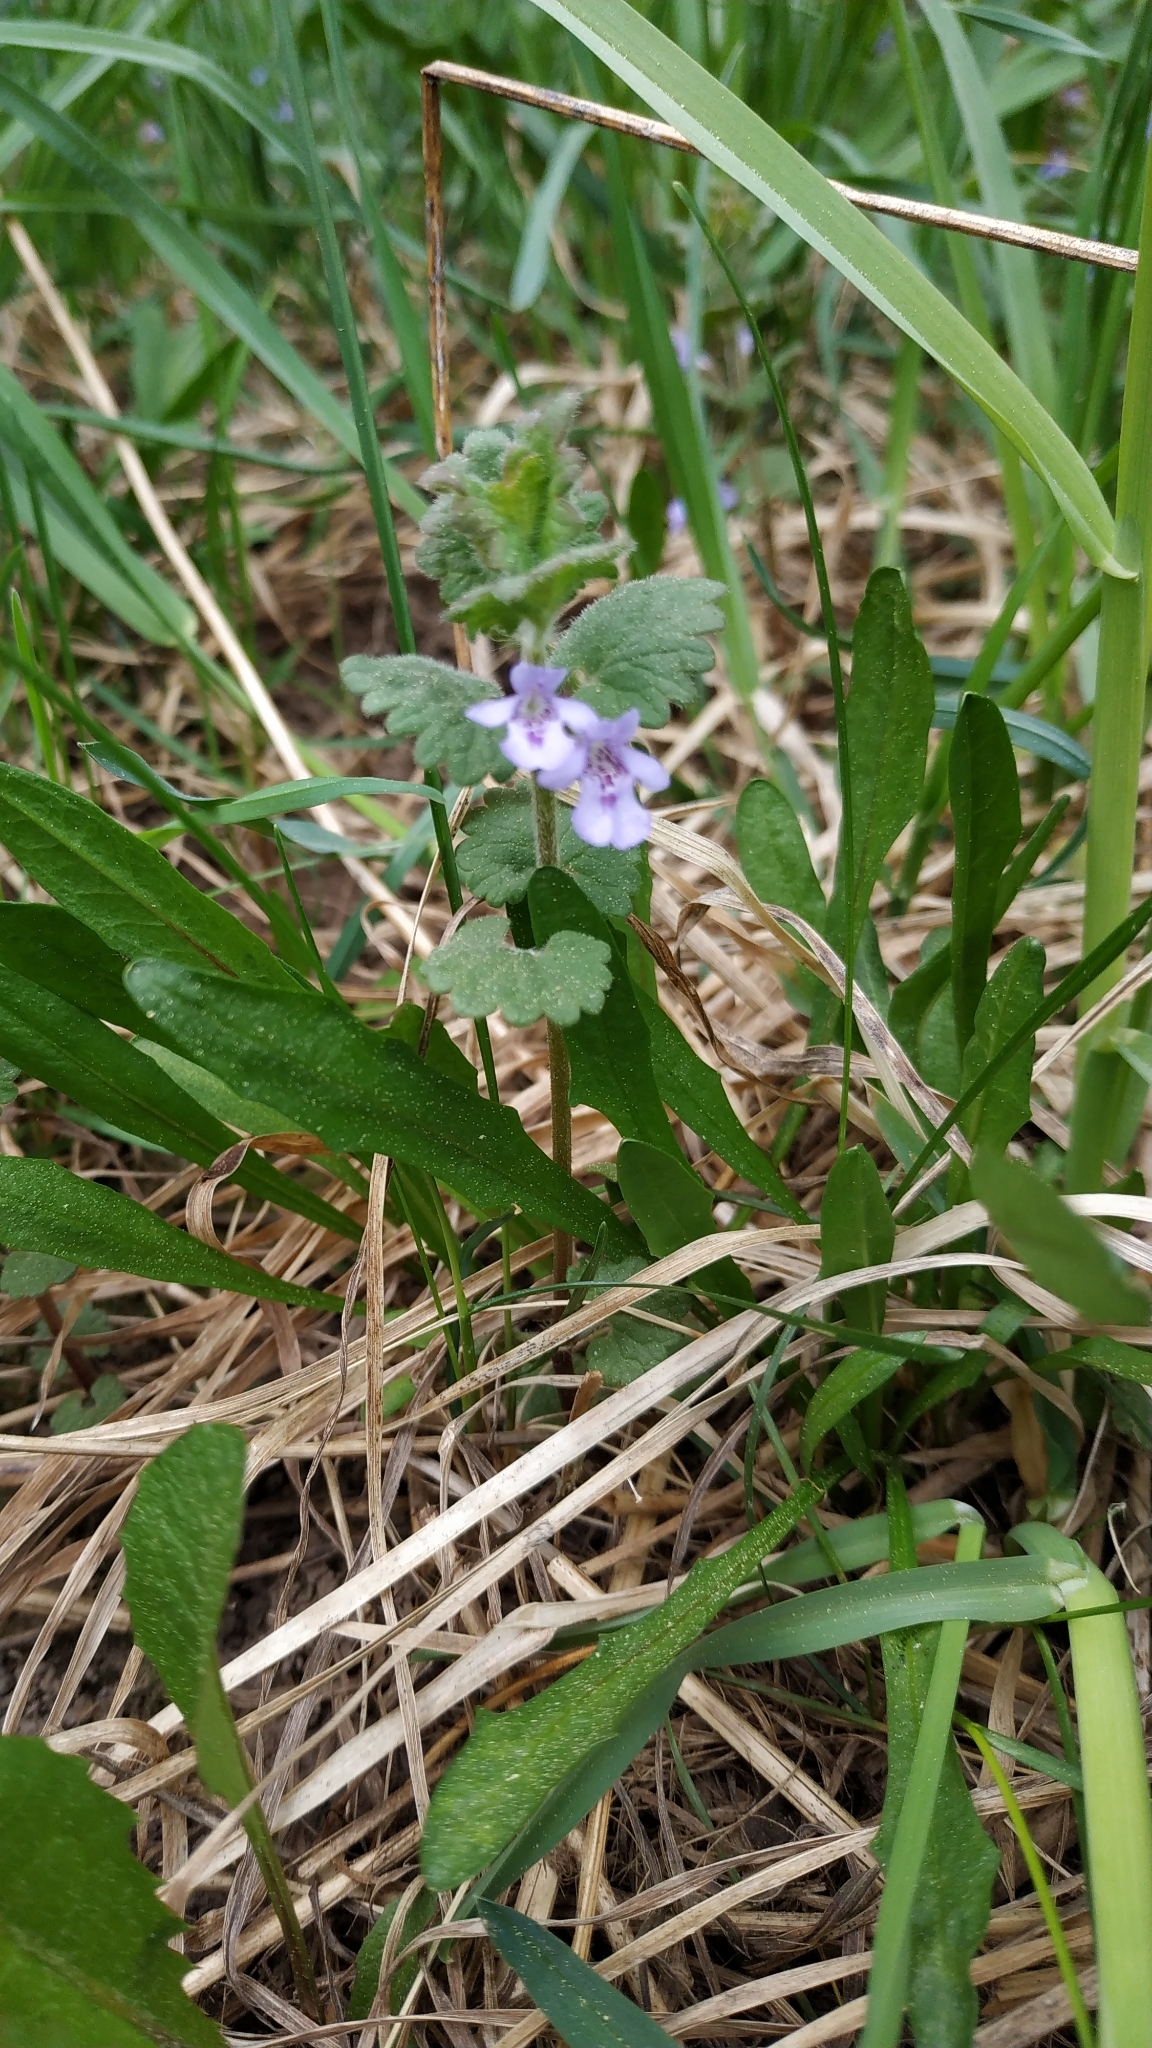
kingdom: Plantae
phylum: Tracheophyta
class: Magnoliopsida
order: Lamiales
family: Lamiaceae
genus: Glechoma
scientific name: Glechoma hederacea
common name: Ground ivy
